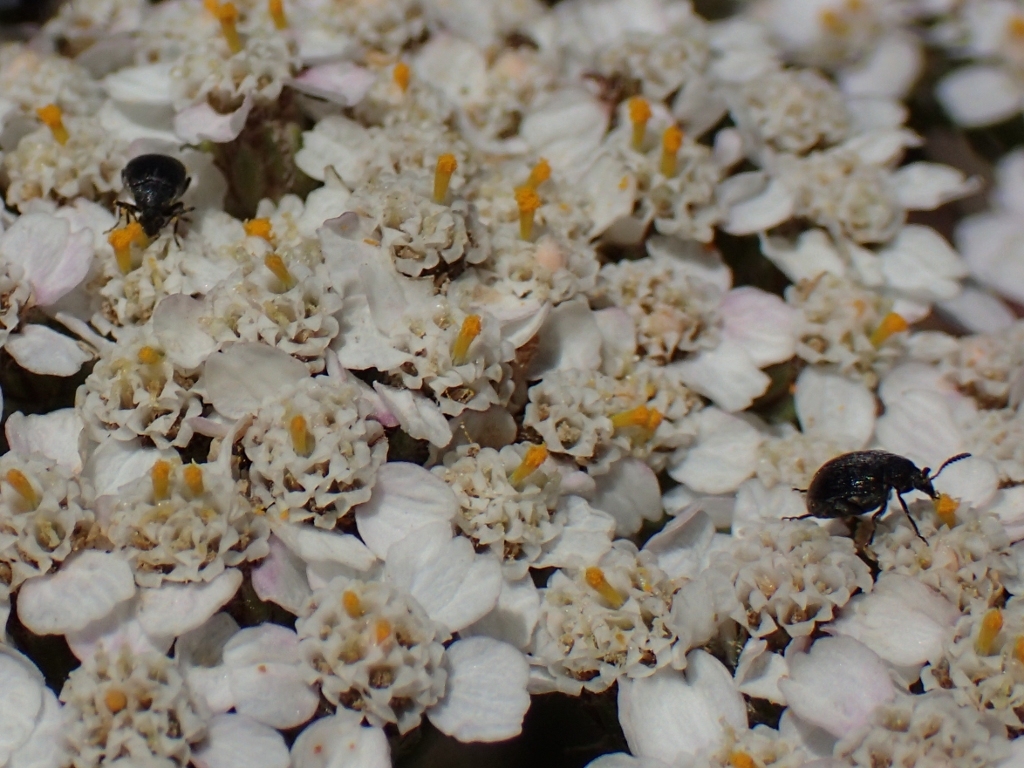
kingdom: Animalia
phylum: Arthropoda
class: Insecta
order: Coleoptera
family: Chrysomelidae
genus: Bruchidius
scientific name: Bruchidius villosus
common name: Scotch broom bruchid
